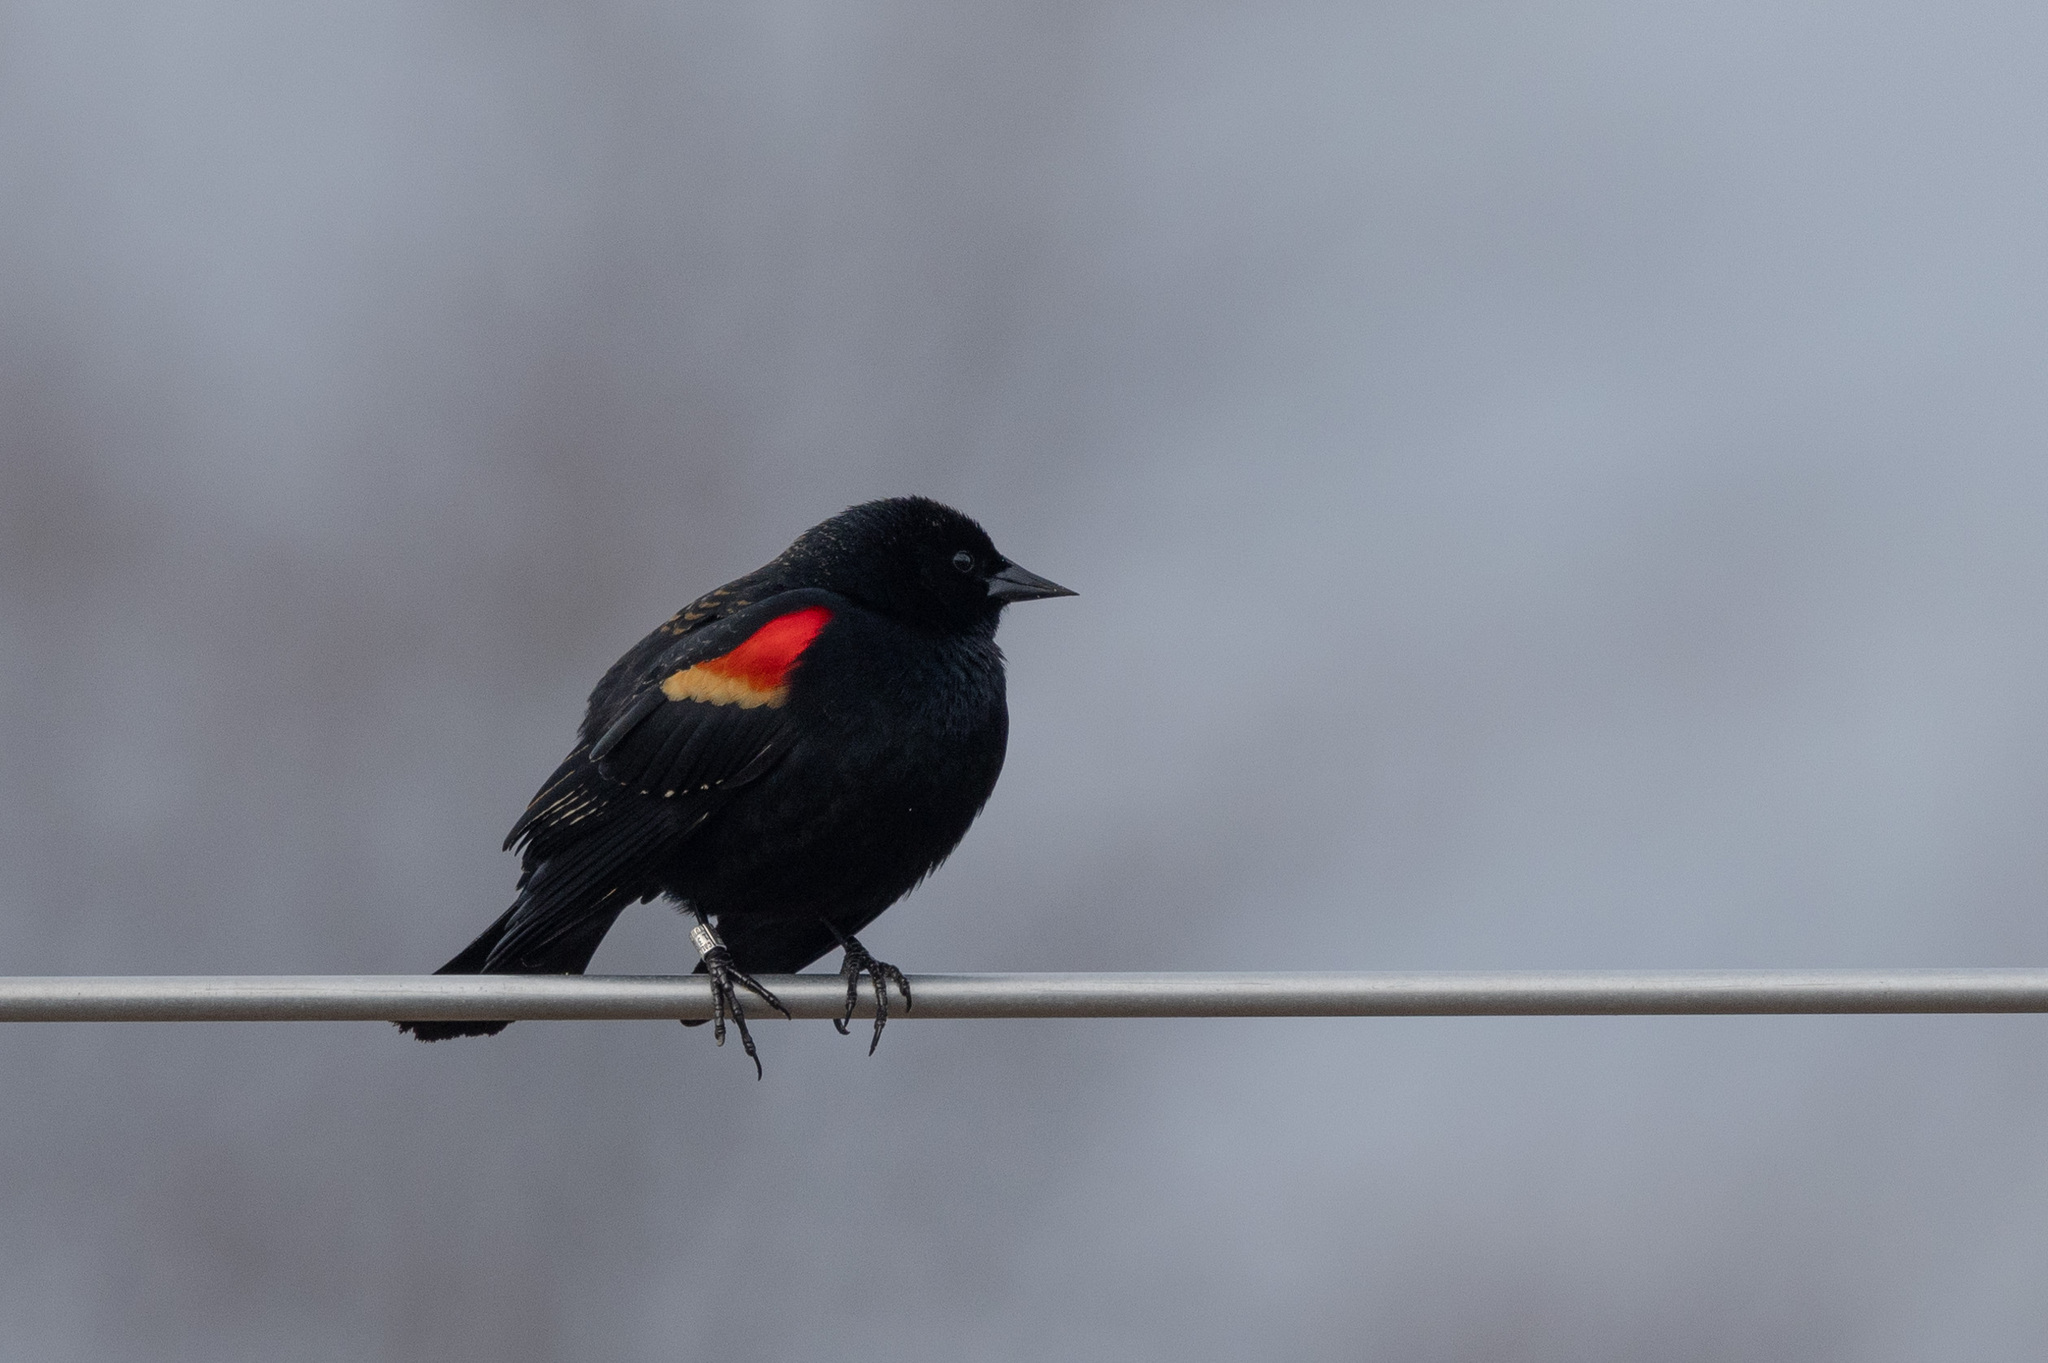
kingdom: Animalia
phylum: Chordata
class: Aves
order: Passeriformes
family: Icteridae
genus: Agelaius
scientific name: Agelaius phoeniceus
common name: Red-winged blackbird
